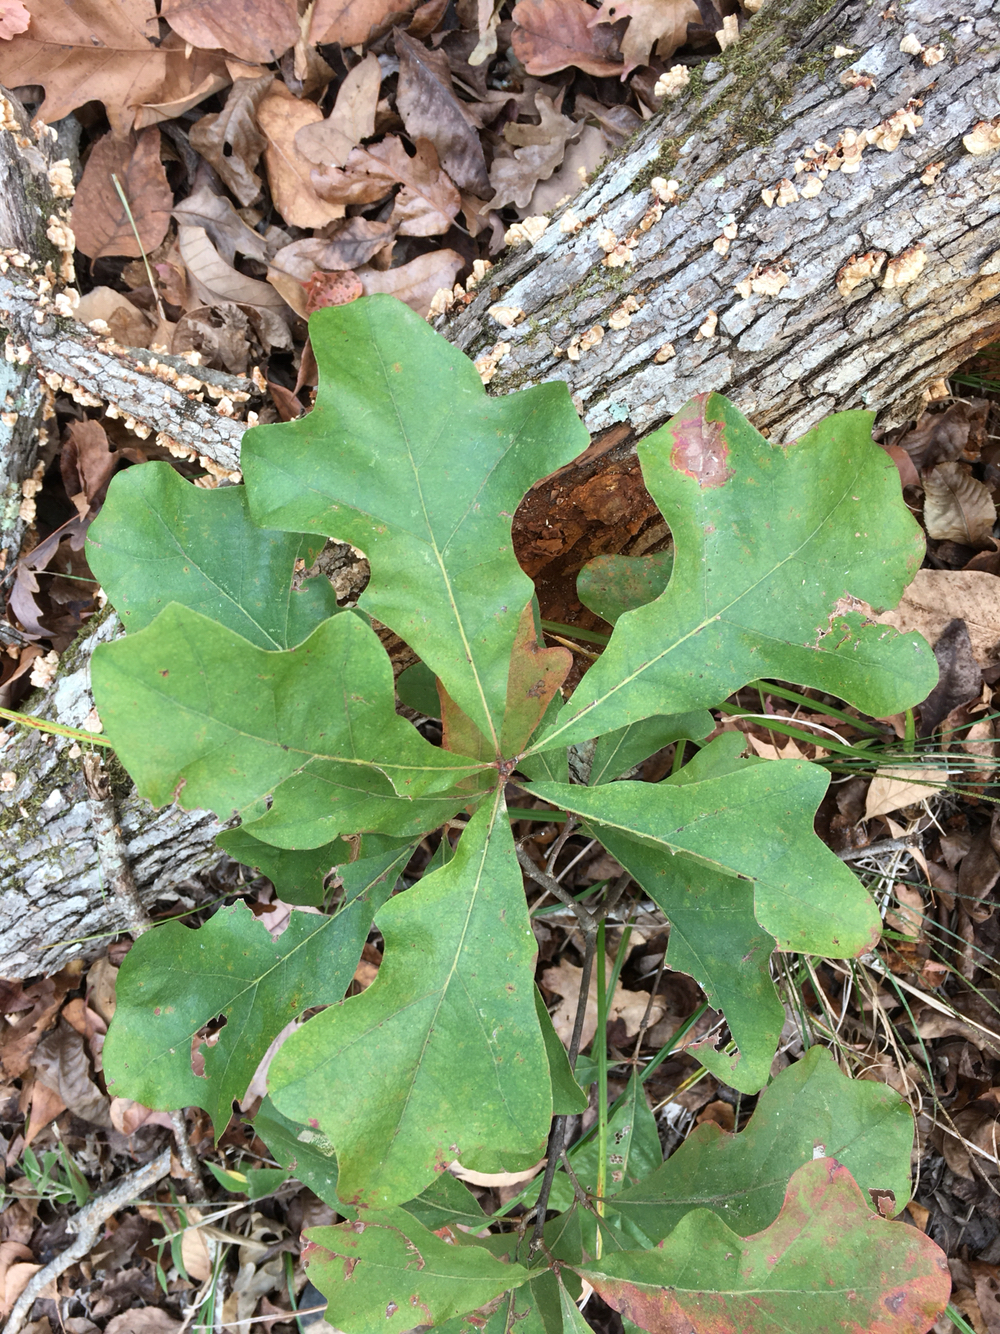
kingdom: Plantae
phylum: Tracheophyta
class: Magnoliopsida
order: Fagales
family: Fagaceae
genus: Quercus
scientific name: Quercus stellata
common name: Post oak
